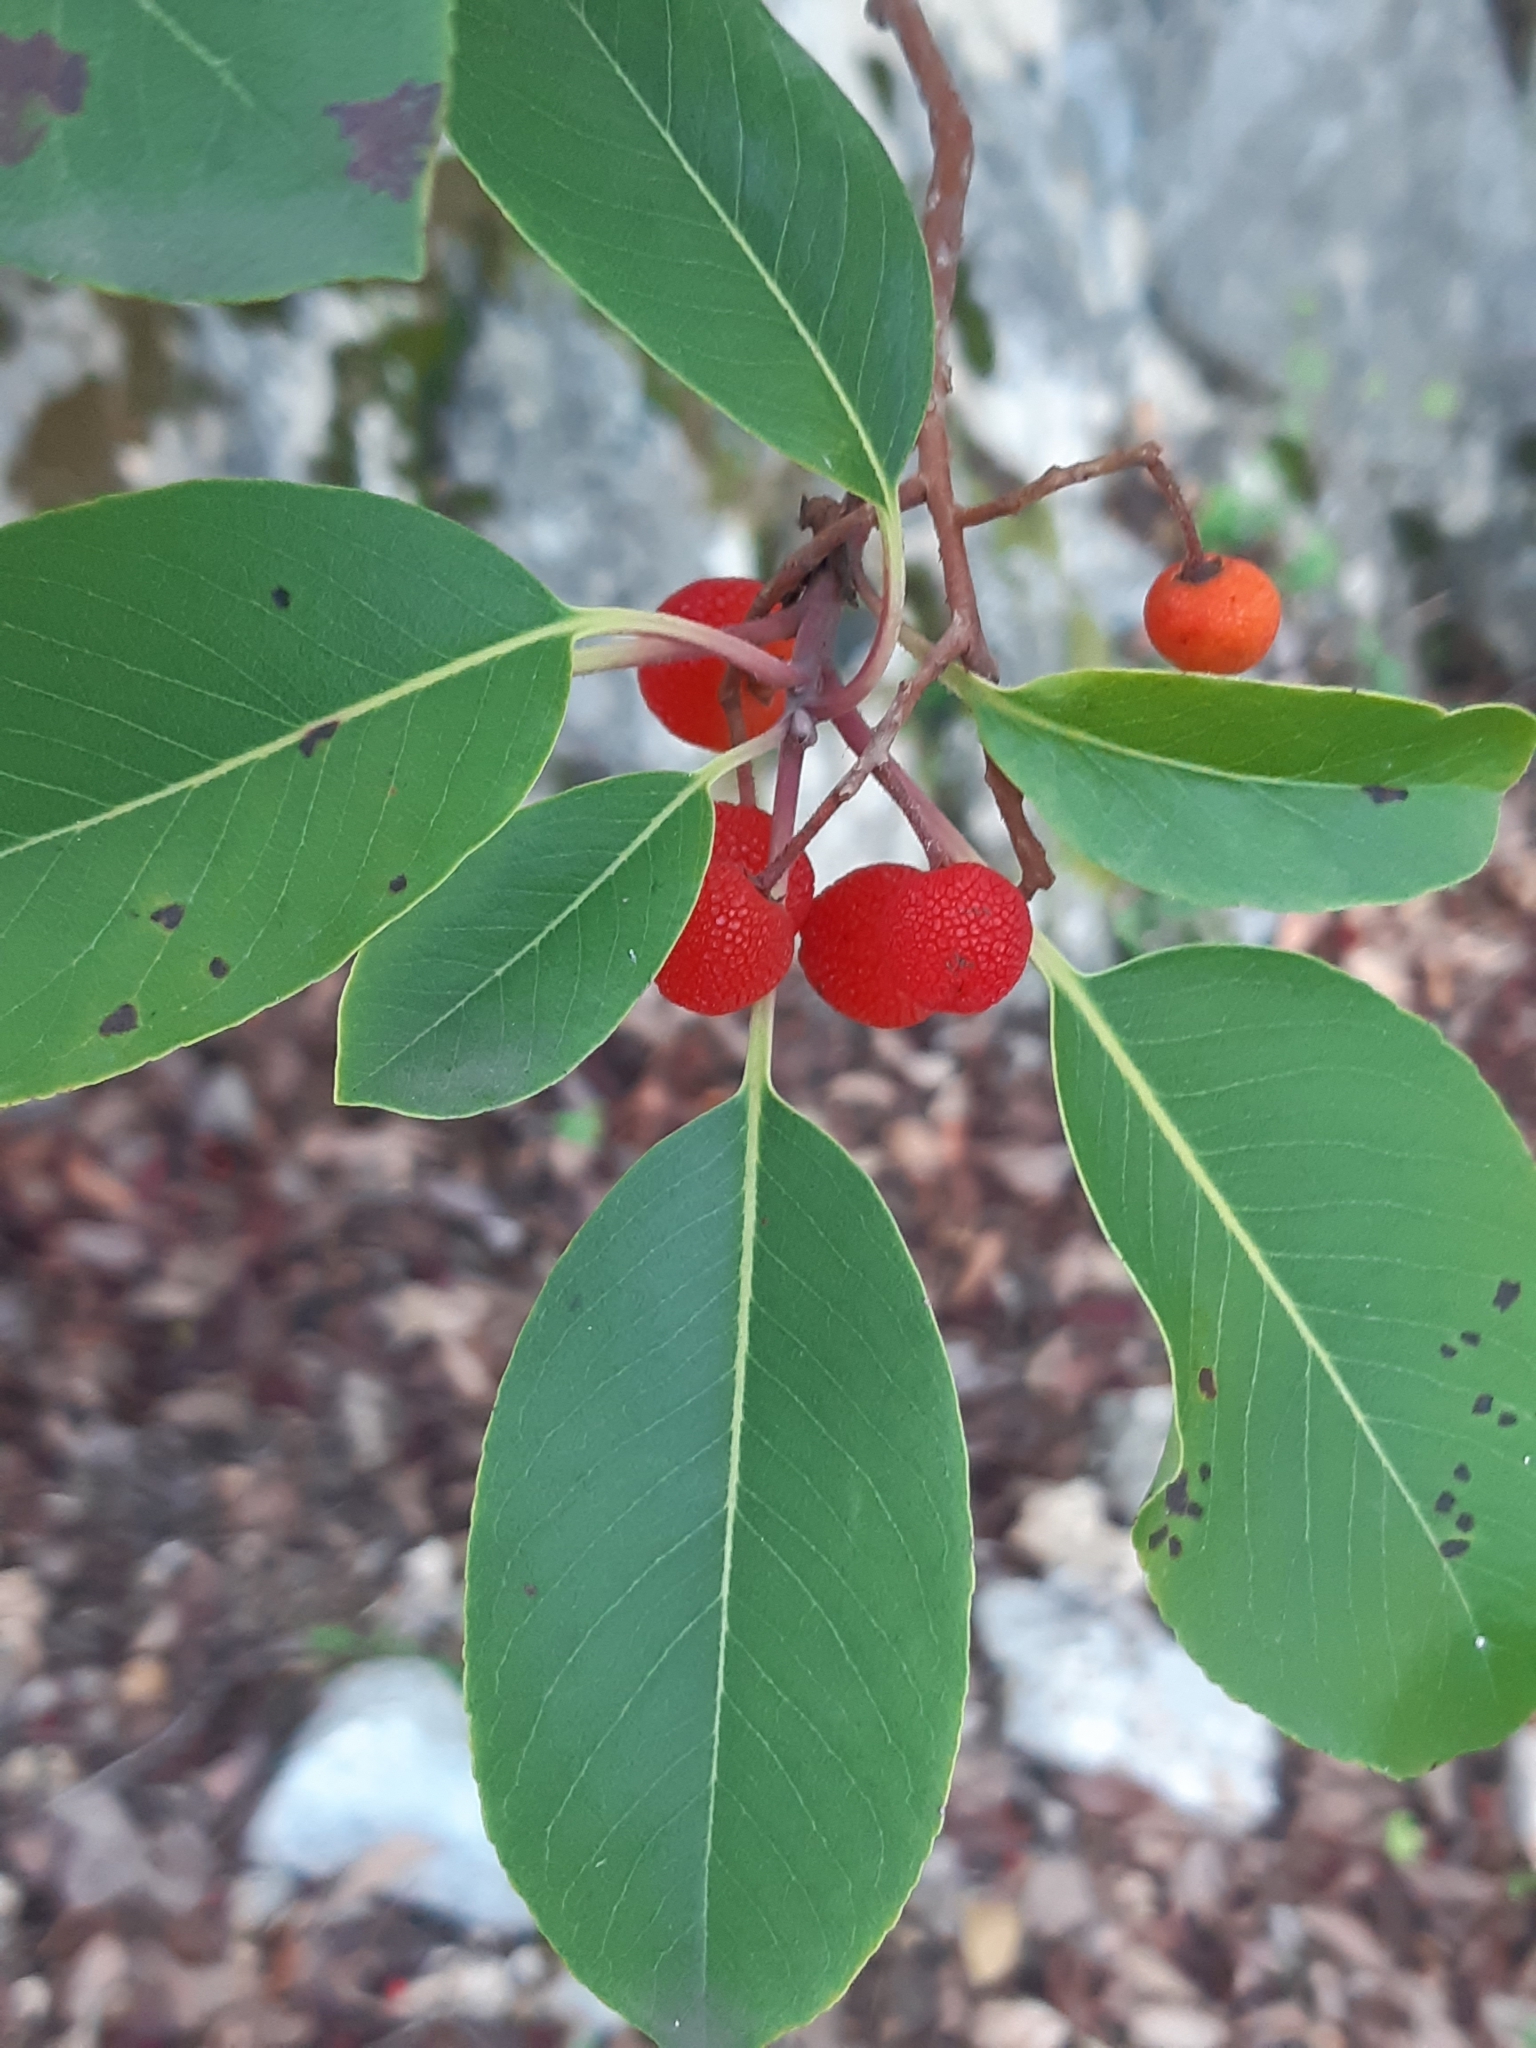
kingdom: Plantae
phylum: Tracheophyta
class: Magnoliopsida
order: Ericales
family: Ericaceae
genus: Arbutus
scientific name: Arbutus andrachne
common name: Greek strawberry tree
